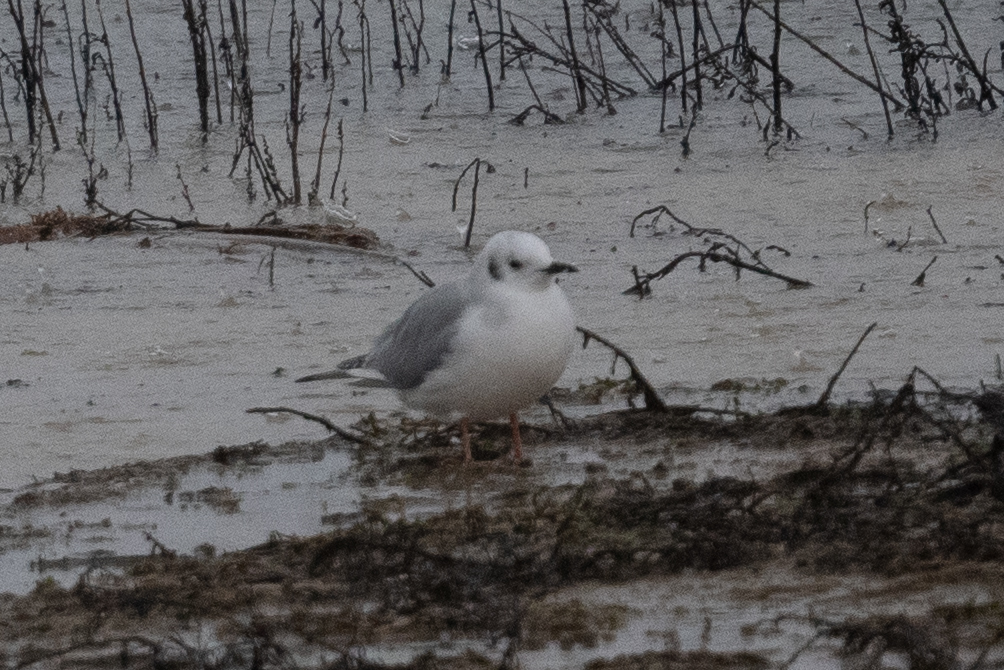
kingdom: Animalia
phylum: Chordata
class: Aves
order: Charadriiformes
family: Laridae
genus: Chroicocephalus
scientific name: Chroicocephalus philadelphia
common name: Bonaparte's gull
